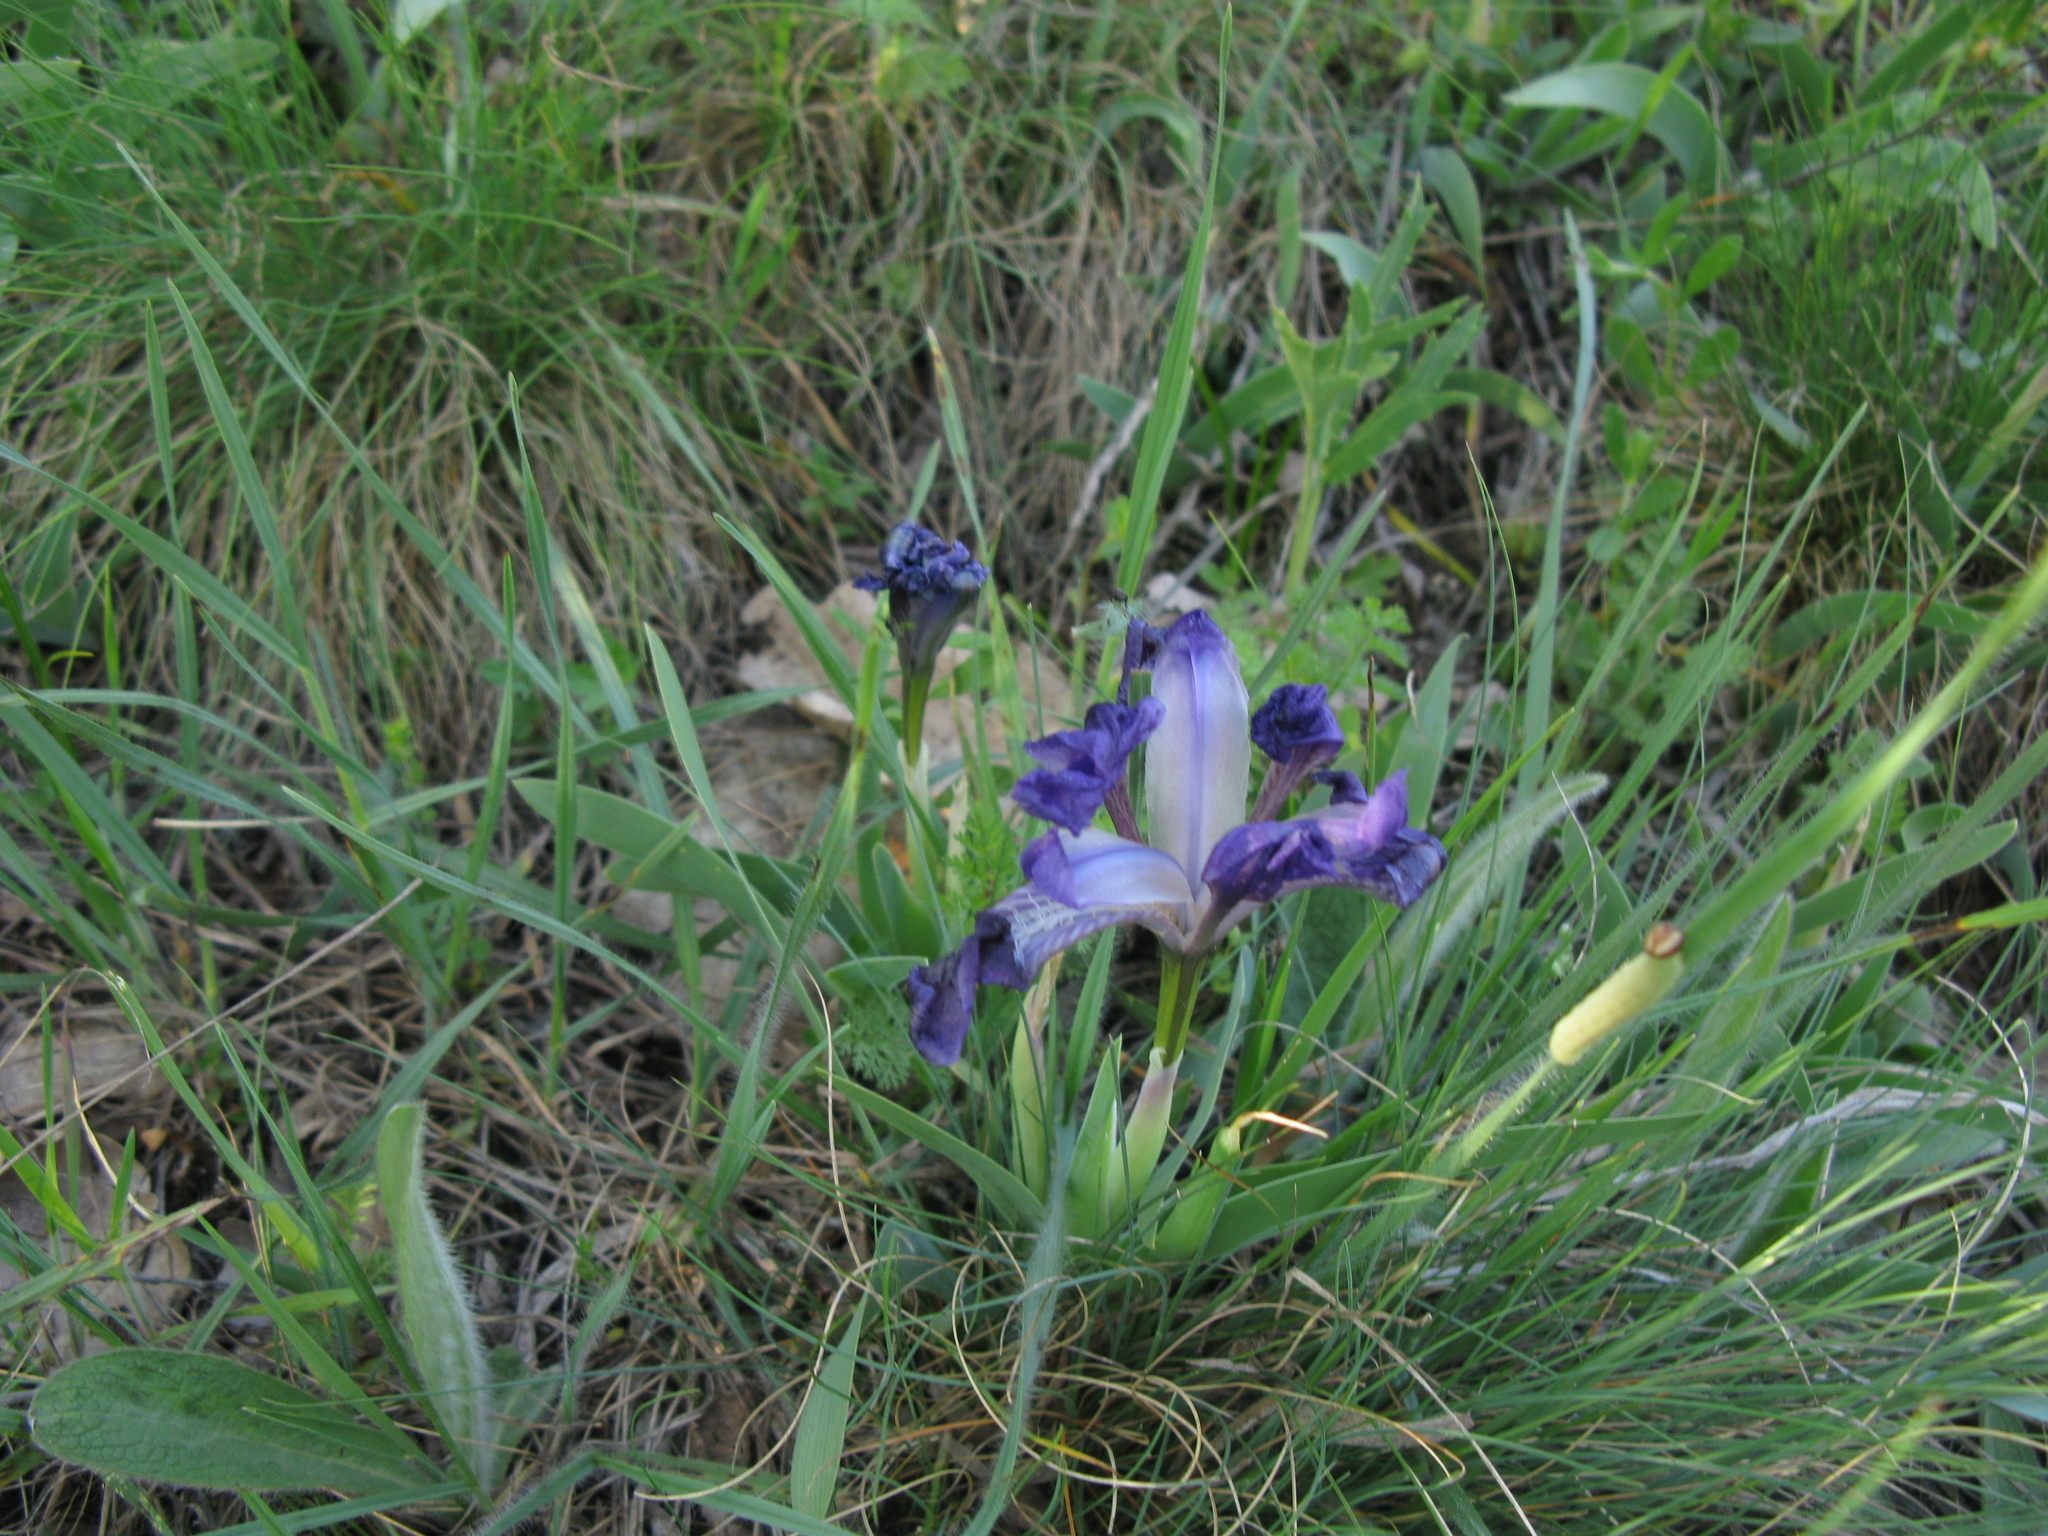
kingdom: Plantae
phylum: Tracheophyta
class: Liliopsida
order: Asparagales
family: Iridaceae
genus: Iris
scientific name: Iris pumila
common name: Dwarf iris
